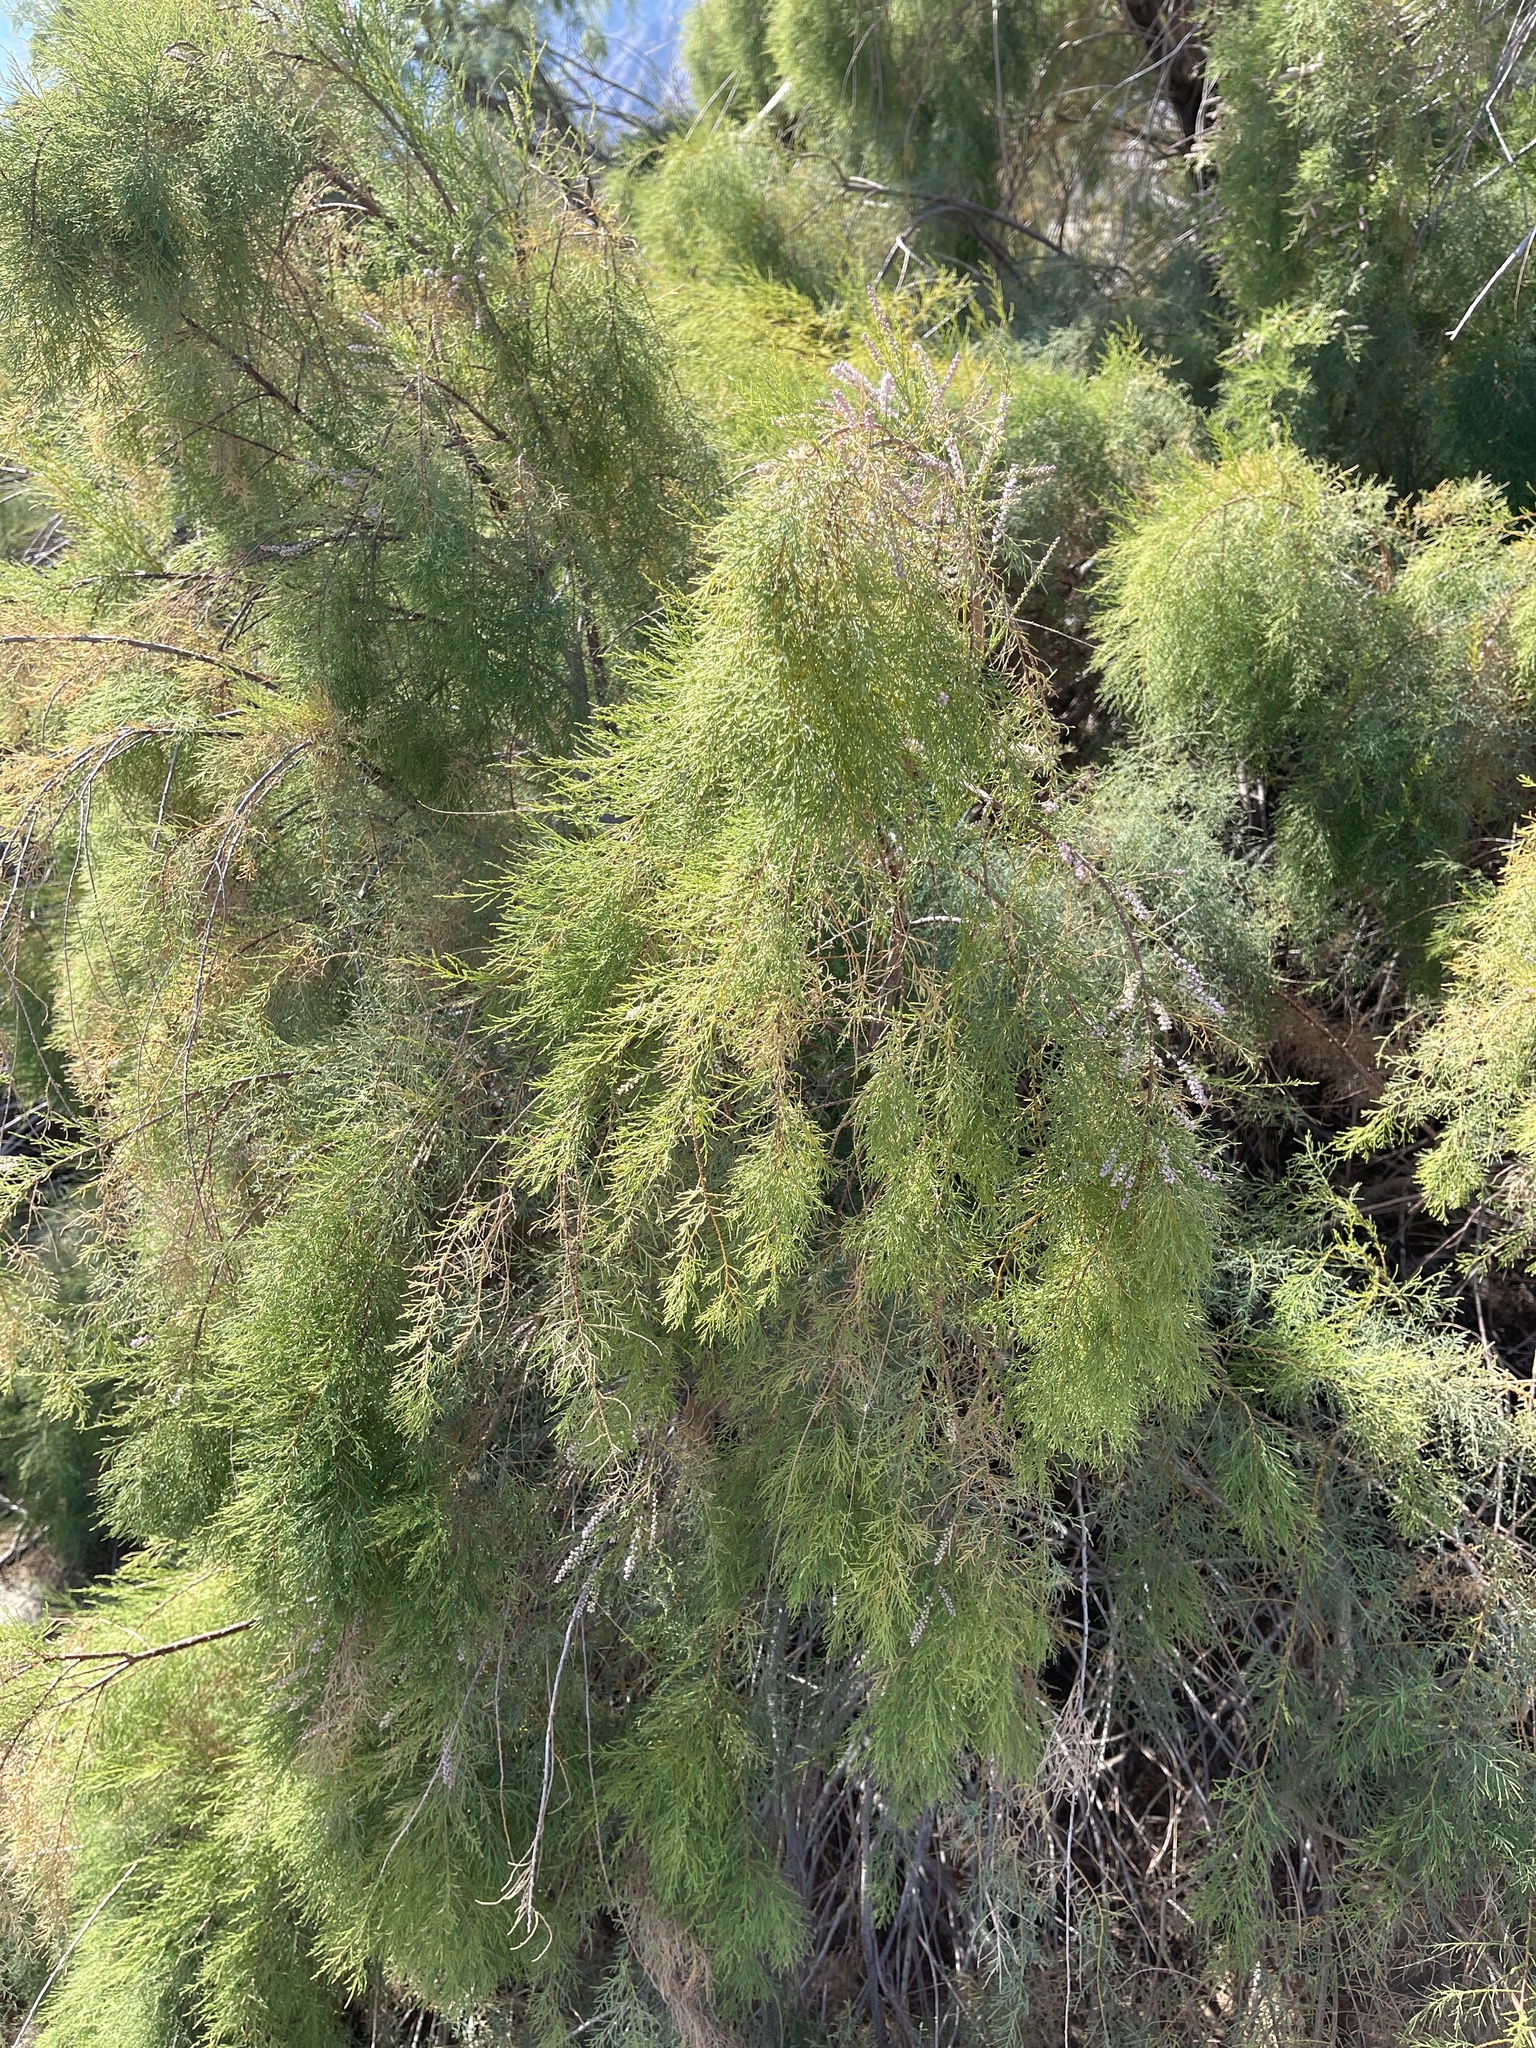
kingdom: Plantae
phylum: Tracheophyta
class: Magnoliopsida
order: Caryophyllales
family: Tamaricaceae
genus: Tamarix
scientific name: Tamarix ramosissima
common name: Pink tamarisk
